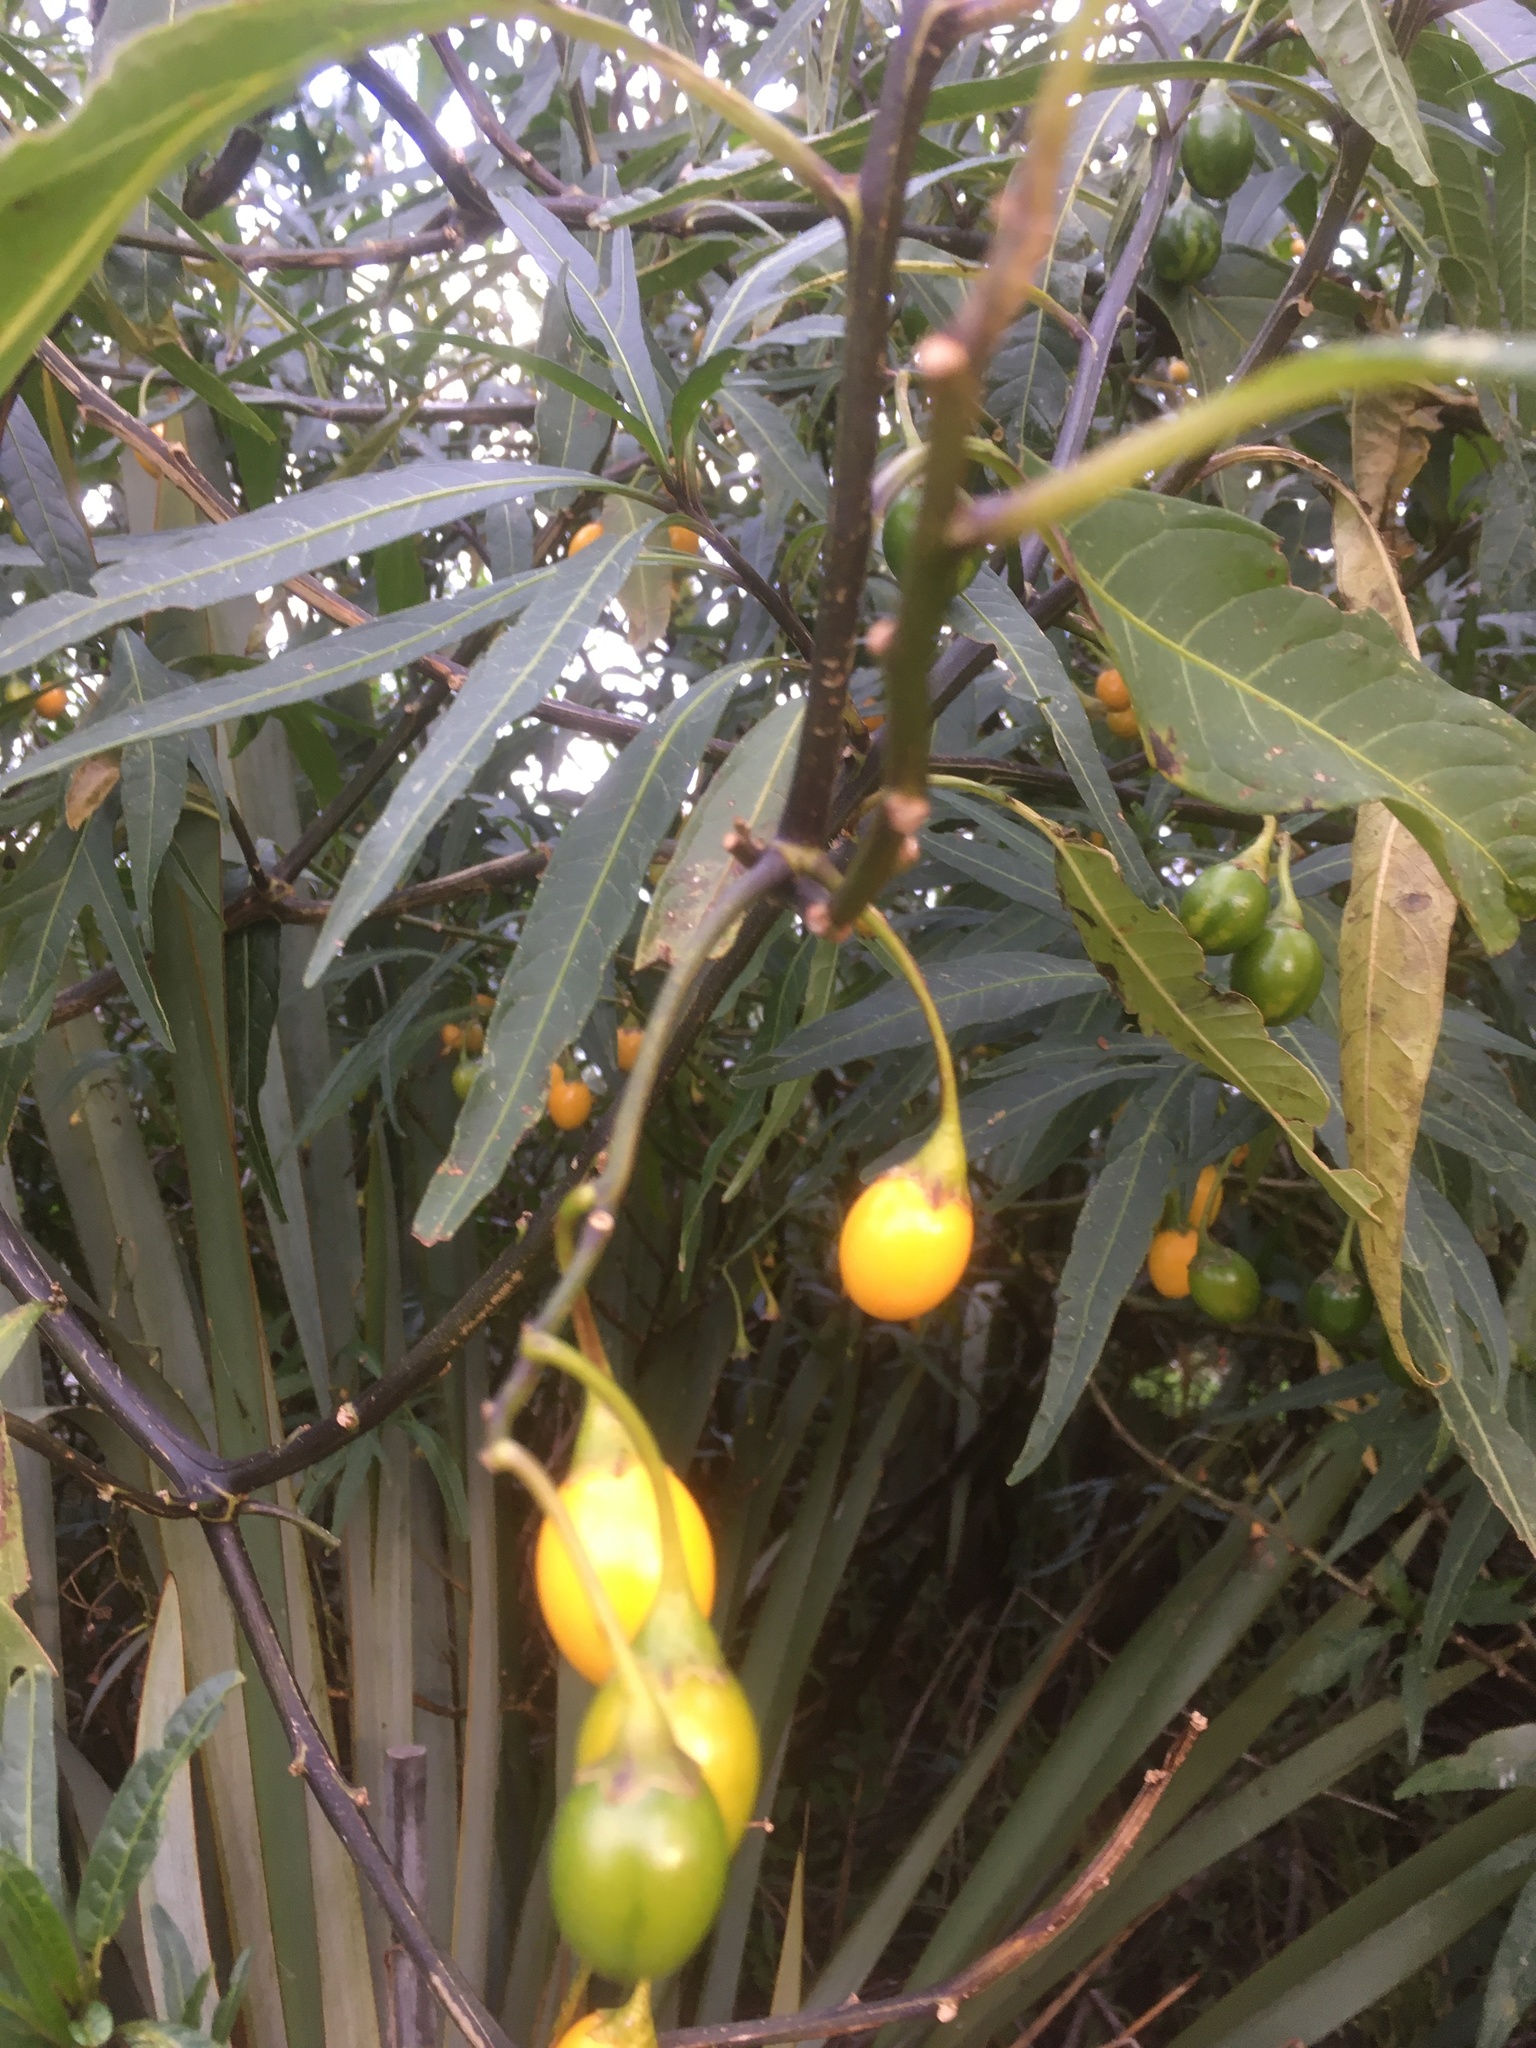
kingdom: Plantae
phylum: Tracheophyta
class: Magnoliopsida
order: Solanales
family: Solanaceae
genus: Solanum
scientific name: Solanum laciniatum
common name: Kangaroo-apple
